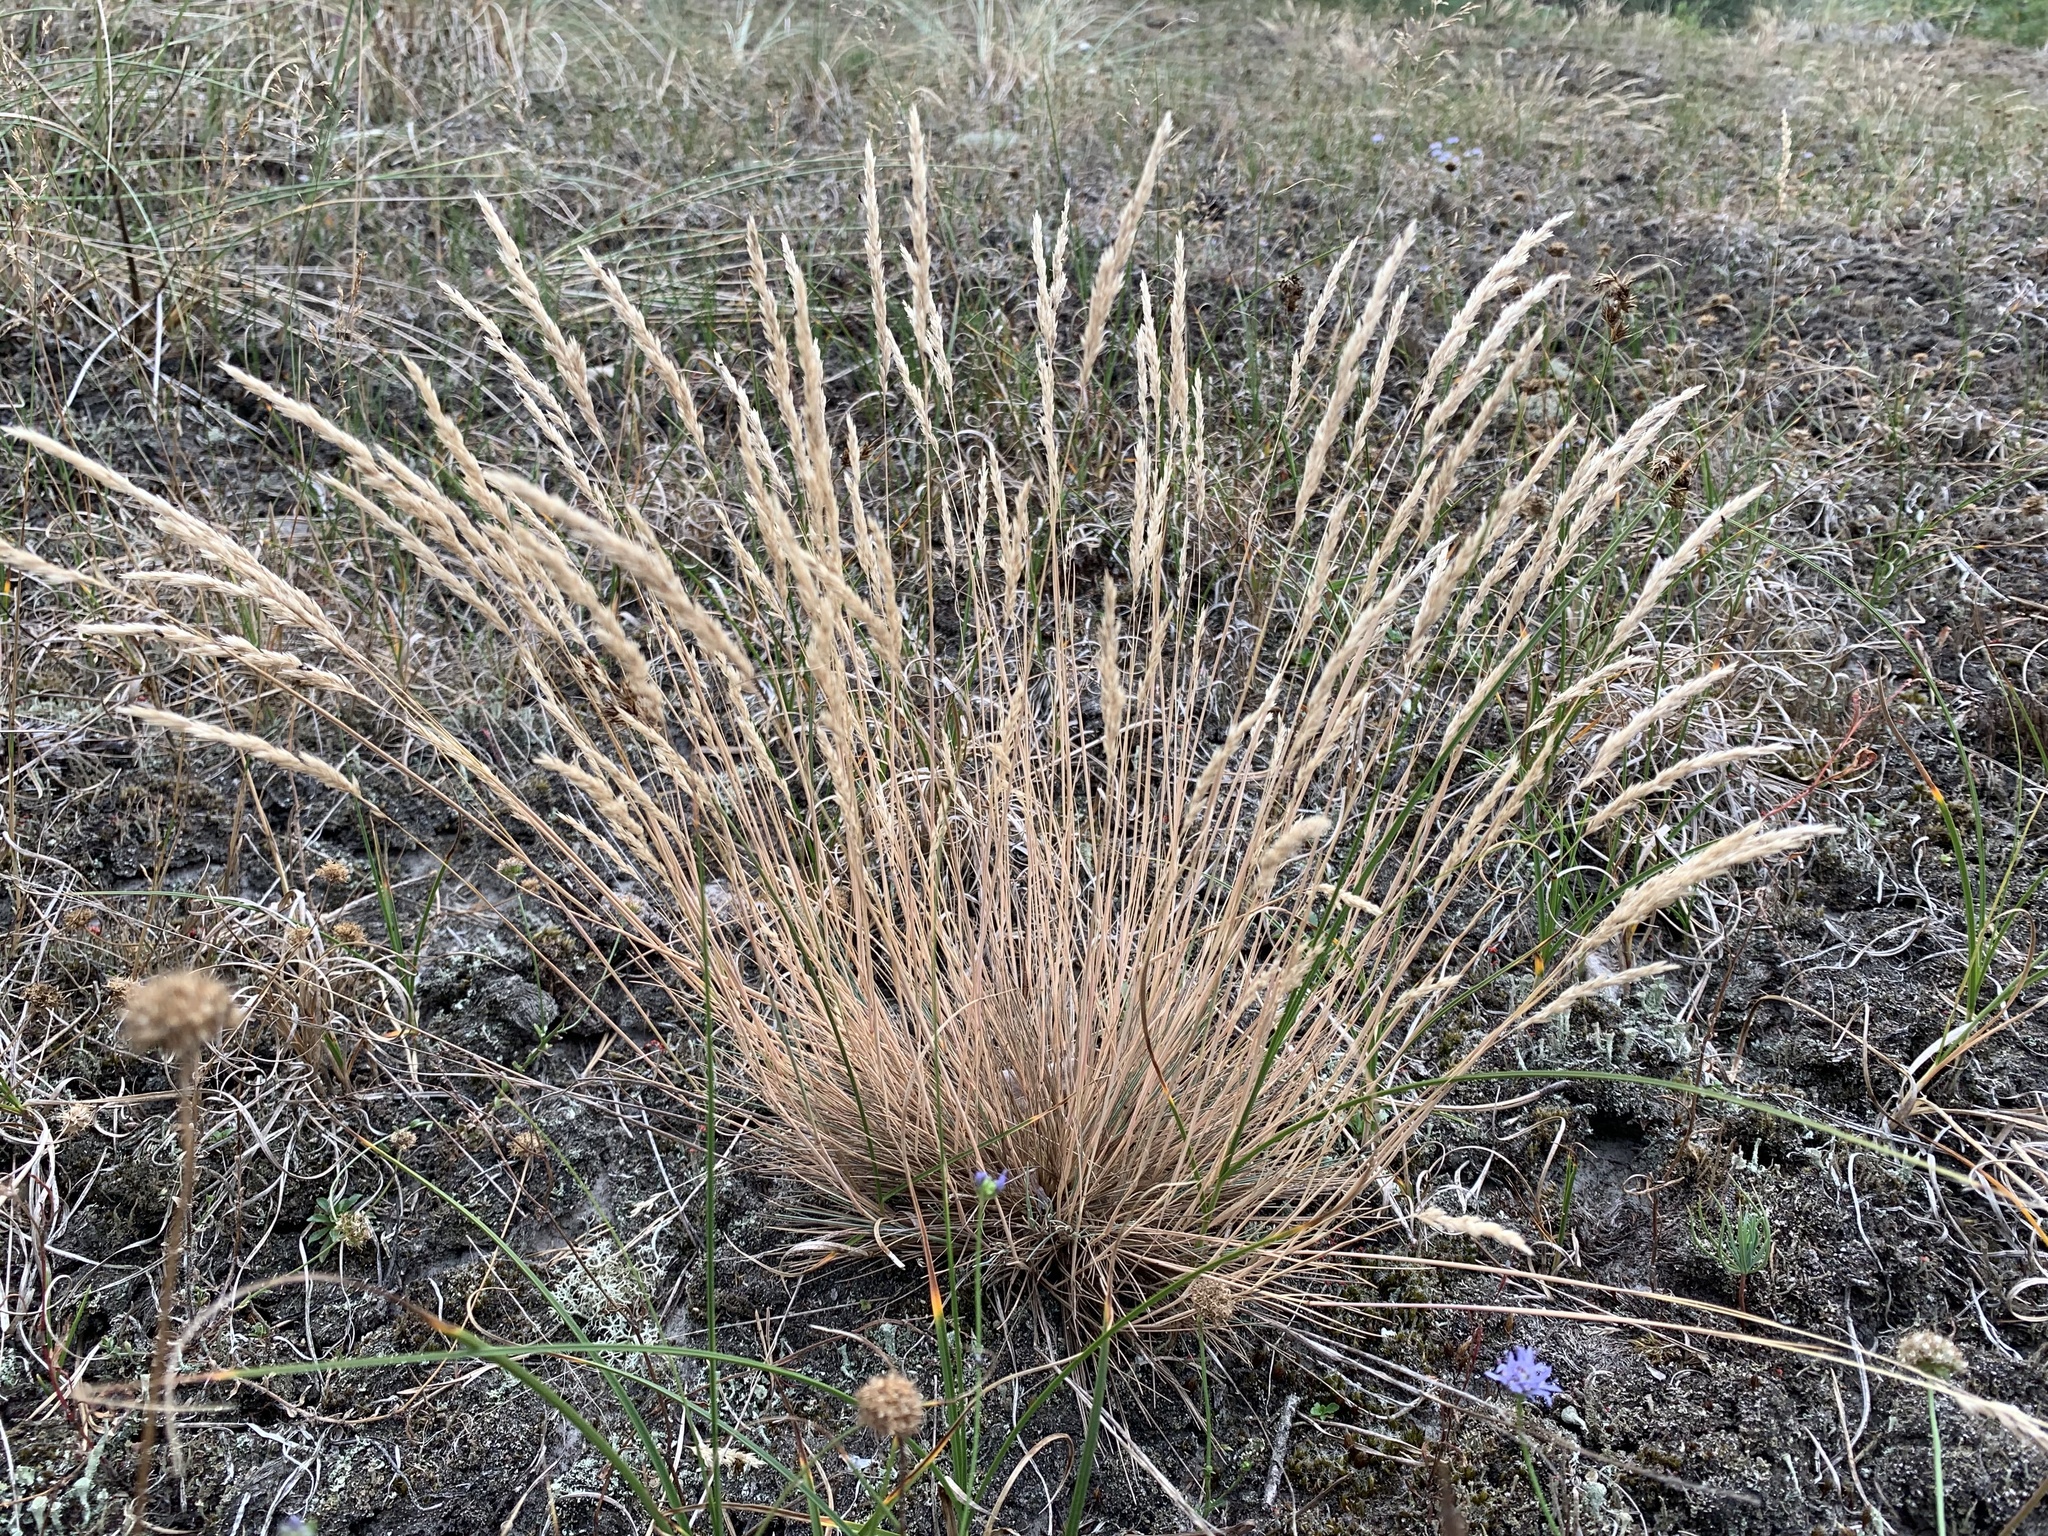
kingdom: Plantae
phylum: Tracheophyta
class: Liliopsida
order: Poales
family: Poaceae
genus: Corynephorus
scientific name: Corynephorus canescens
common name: Grey hair-grass
